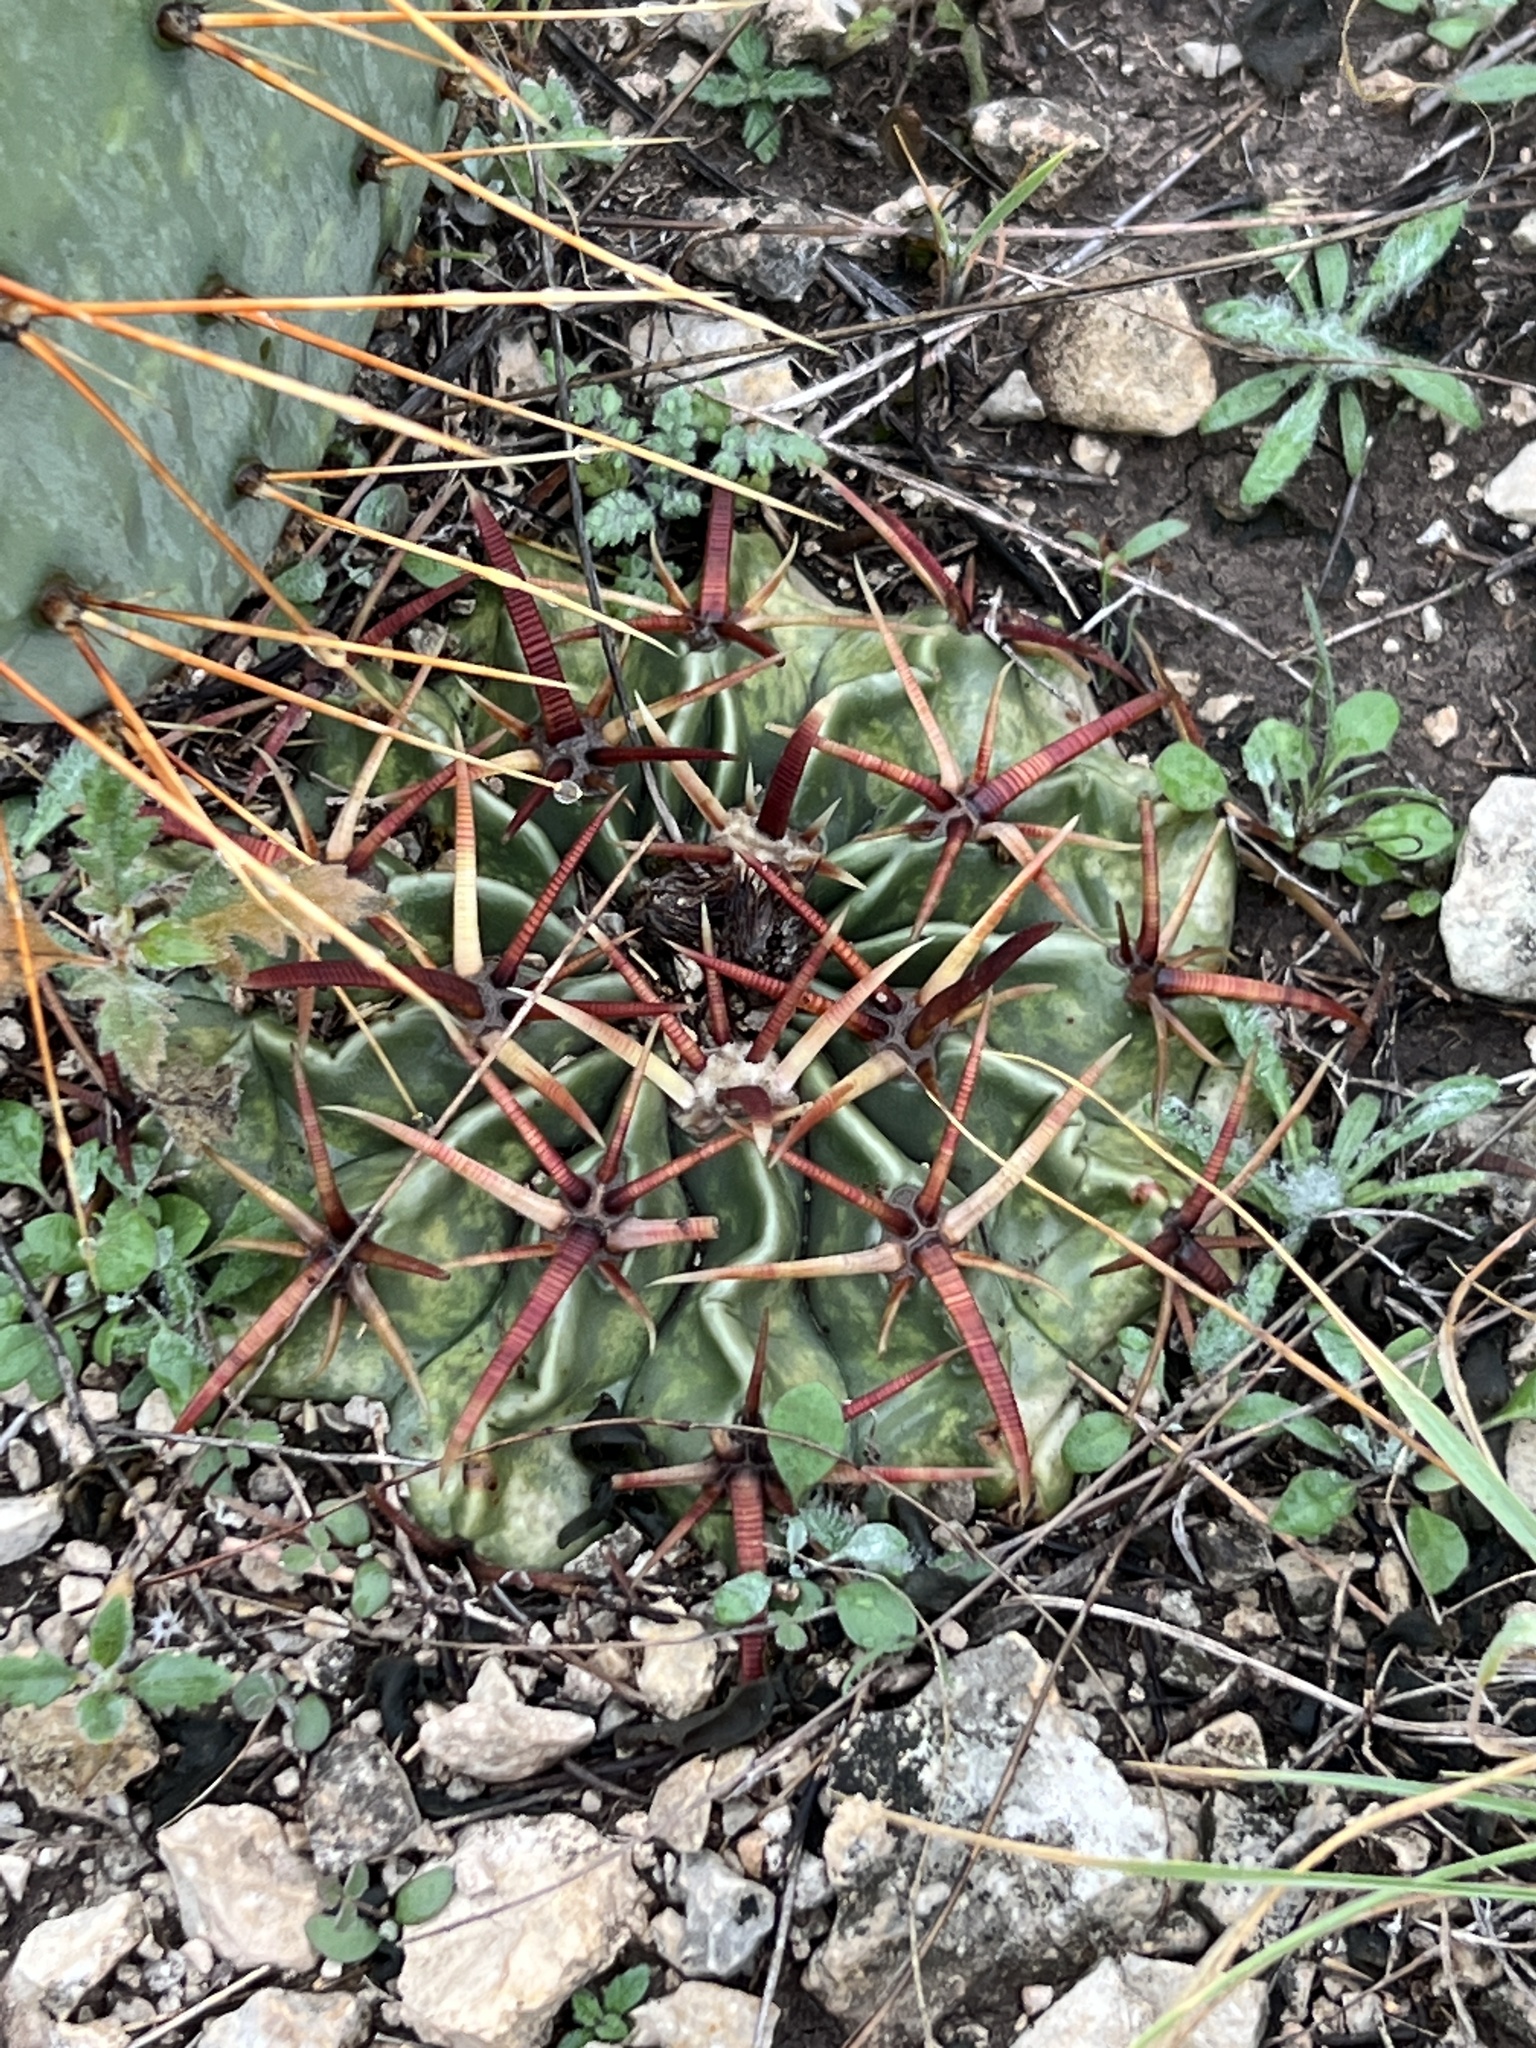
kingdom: Plantae
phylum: Tracheophyta
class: Magnoliopsida
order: Caryophyllales
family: Cactaceae
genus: Echinocactus
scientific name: Echinocactus texensis
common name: Devil's pincushion
